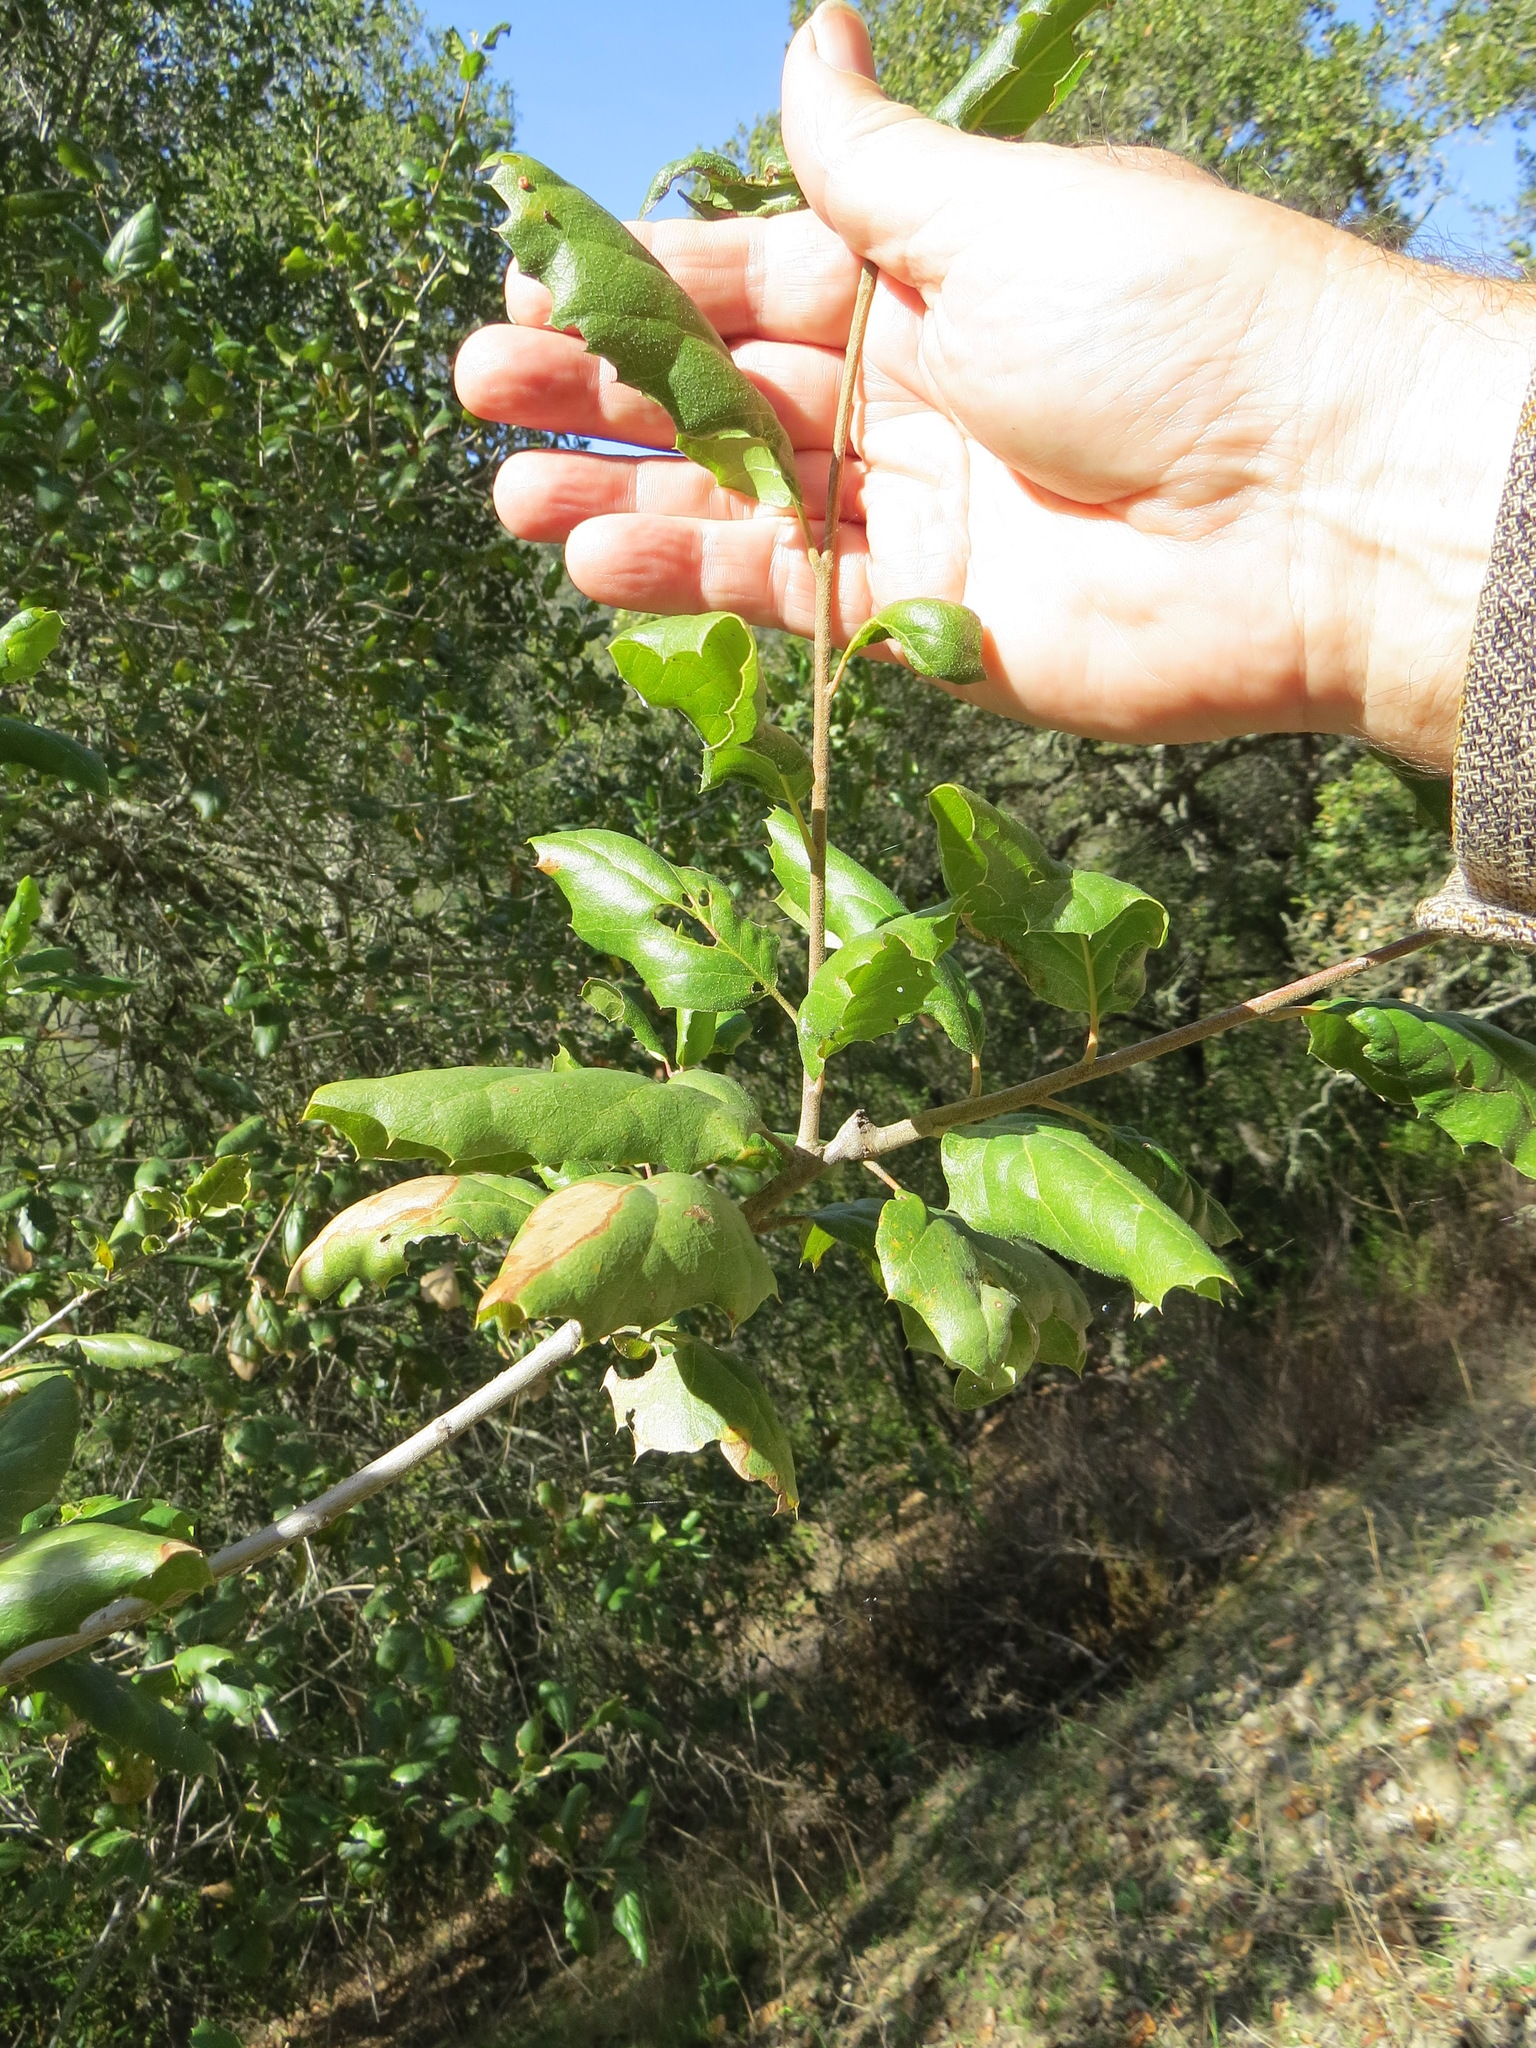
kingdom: Animalia
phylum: Arthropoda
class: Insecta
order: Hymenoptera
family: Cynipidae
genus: Dryocosmus
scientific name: Dryocosmus
